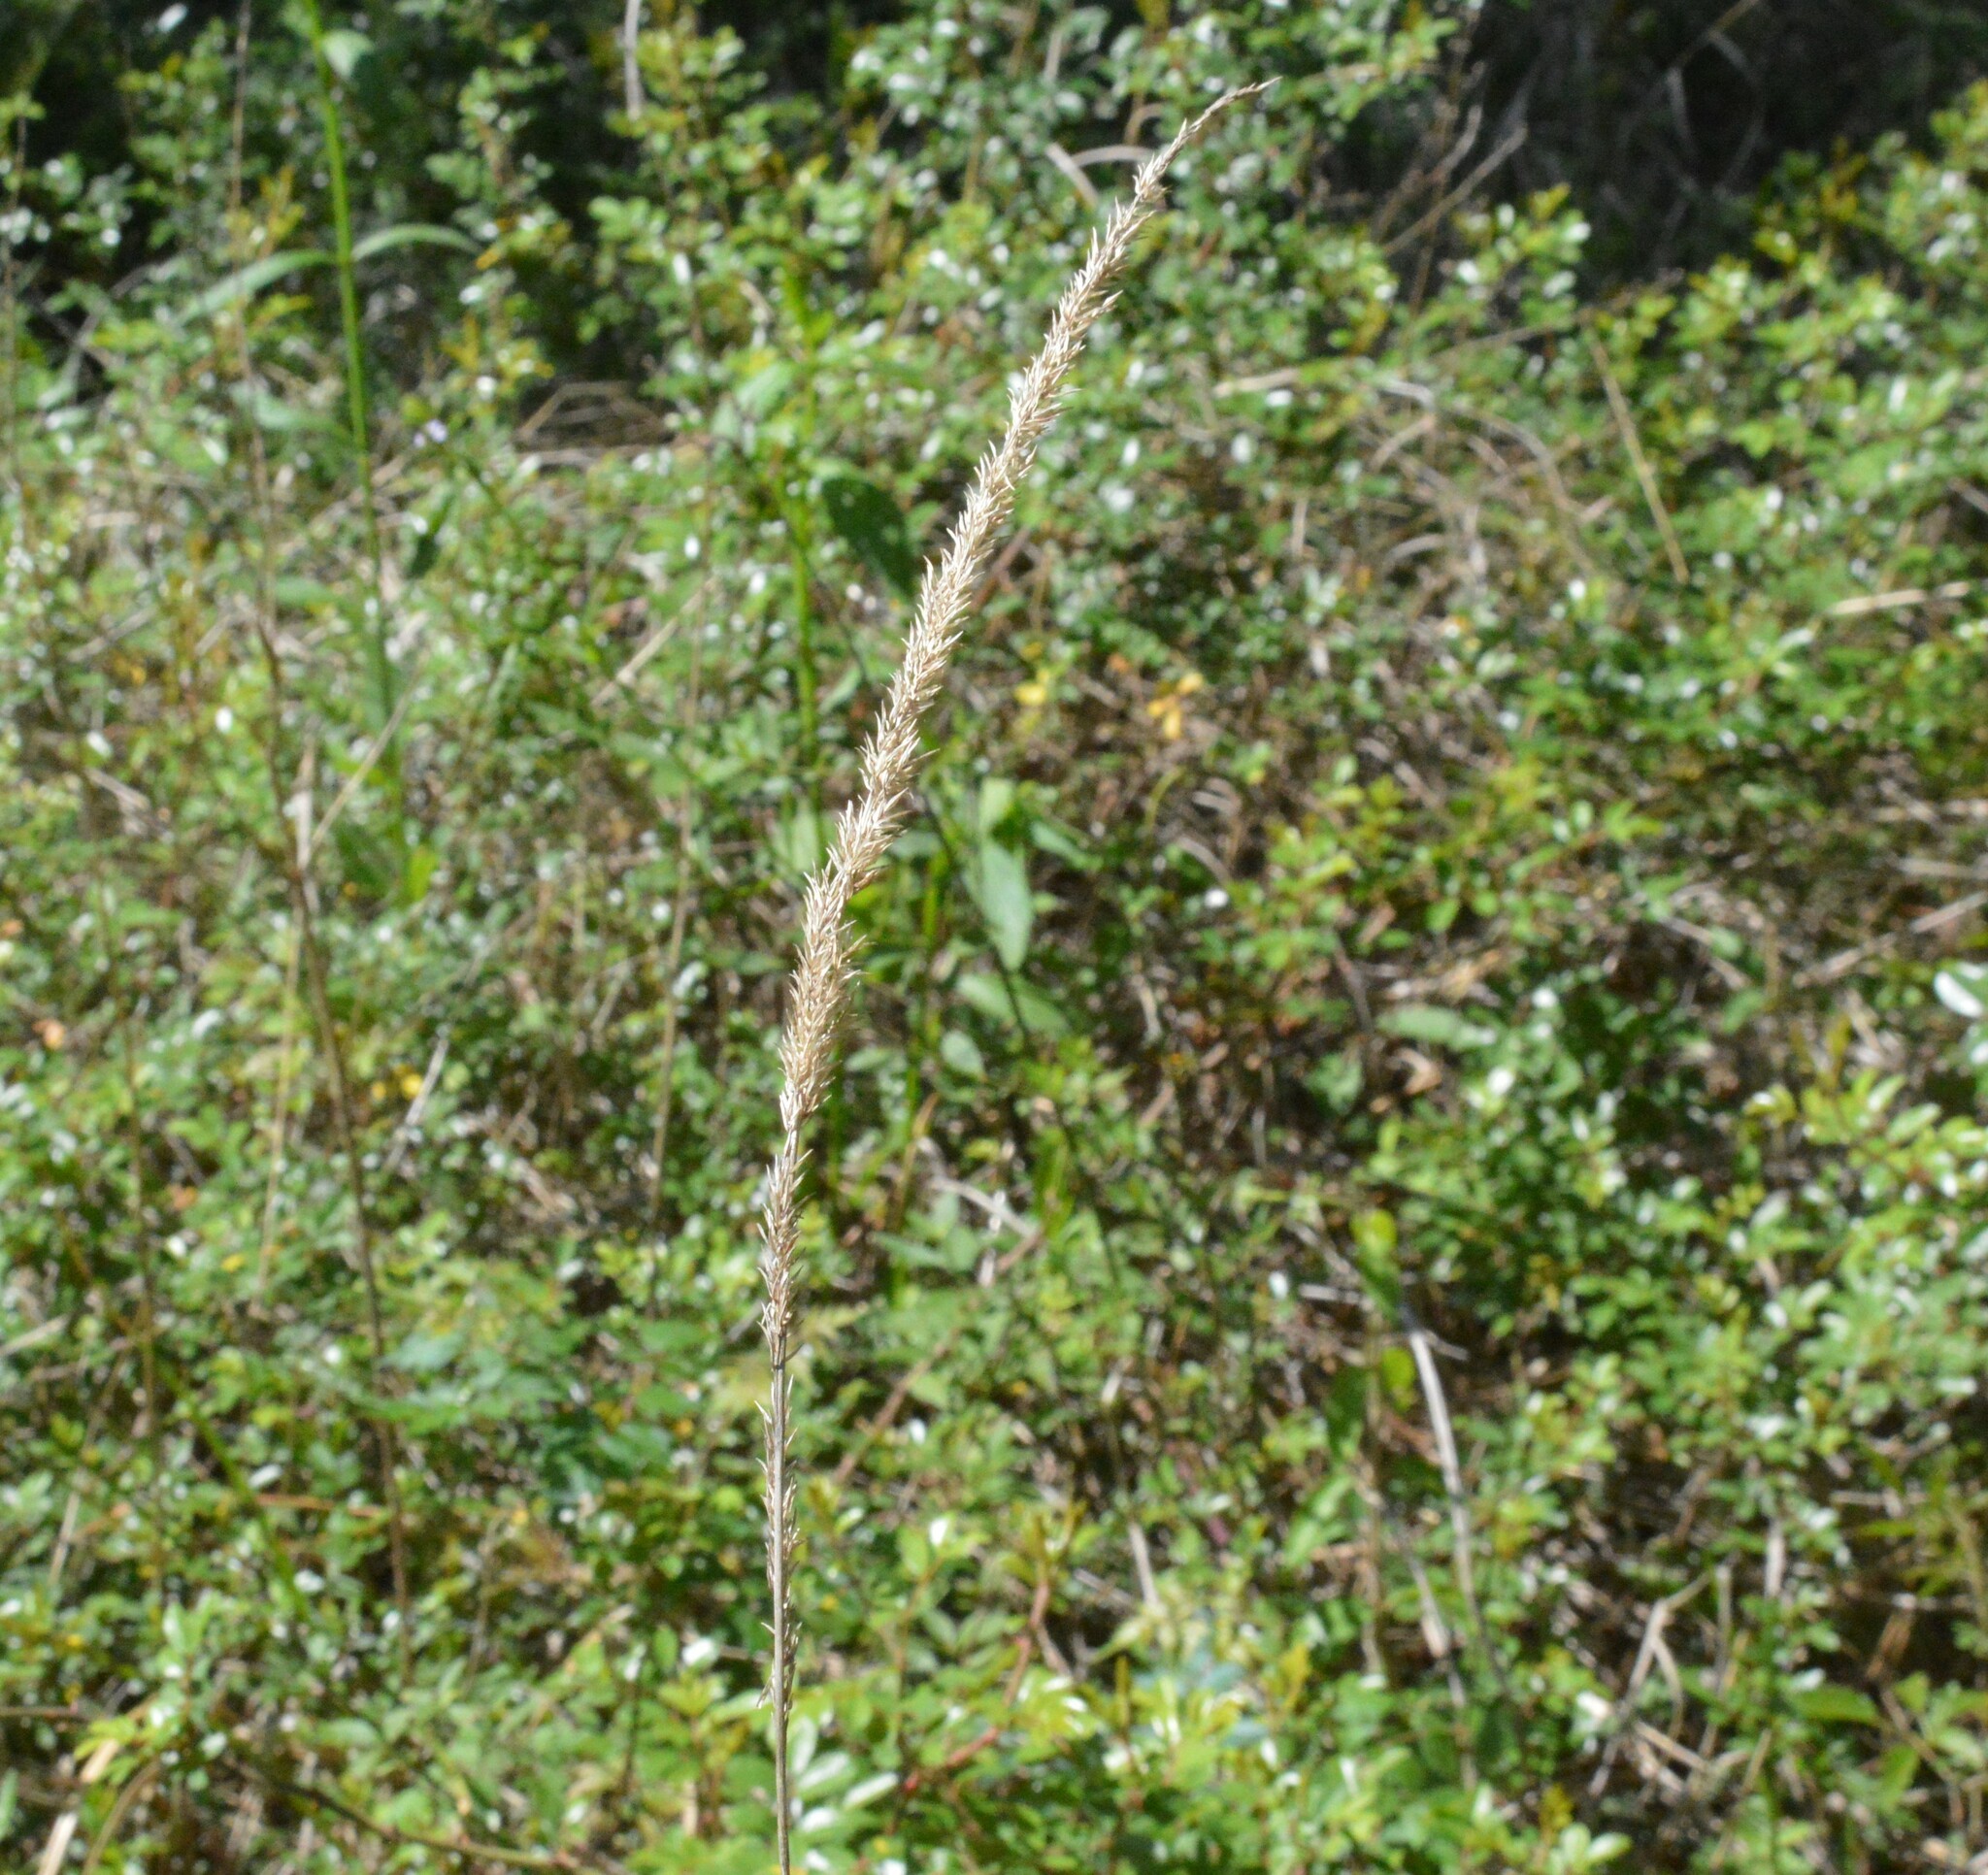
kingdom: Plantae
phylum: Tracheophyta
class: Liliopsida
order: Poales
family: Poaceae
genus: Tridens
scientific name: Tridens strictus
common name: Long-spike tridens
